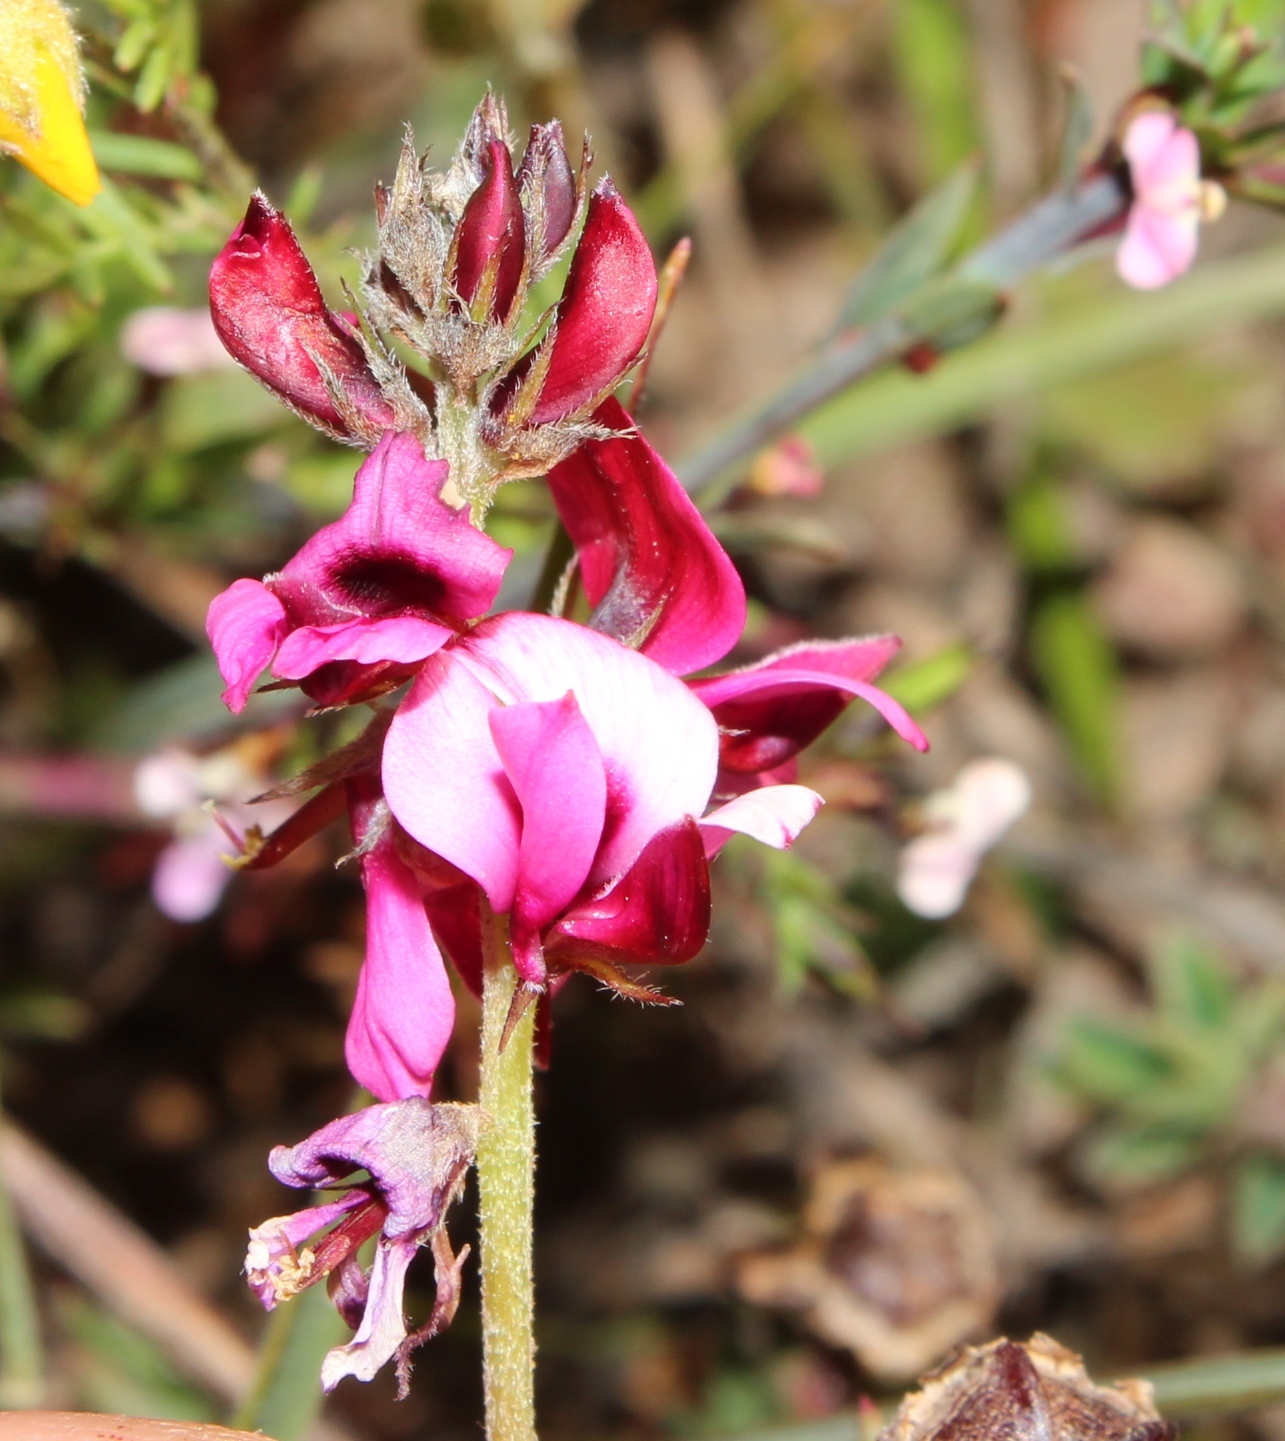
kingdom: Plantae
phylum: Tracheophyta
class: Magnoliopsida
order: Fabales
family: Fabaceae
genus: Indigofera
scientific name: Indigofera incana
